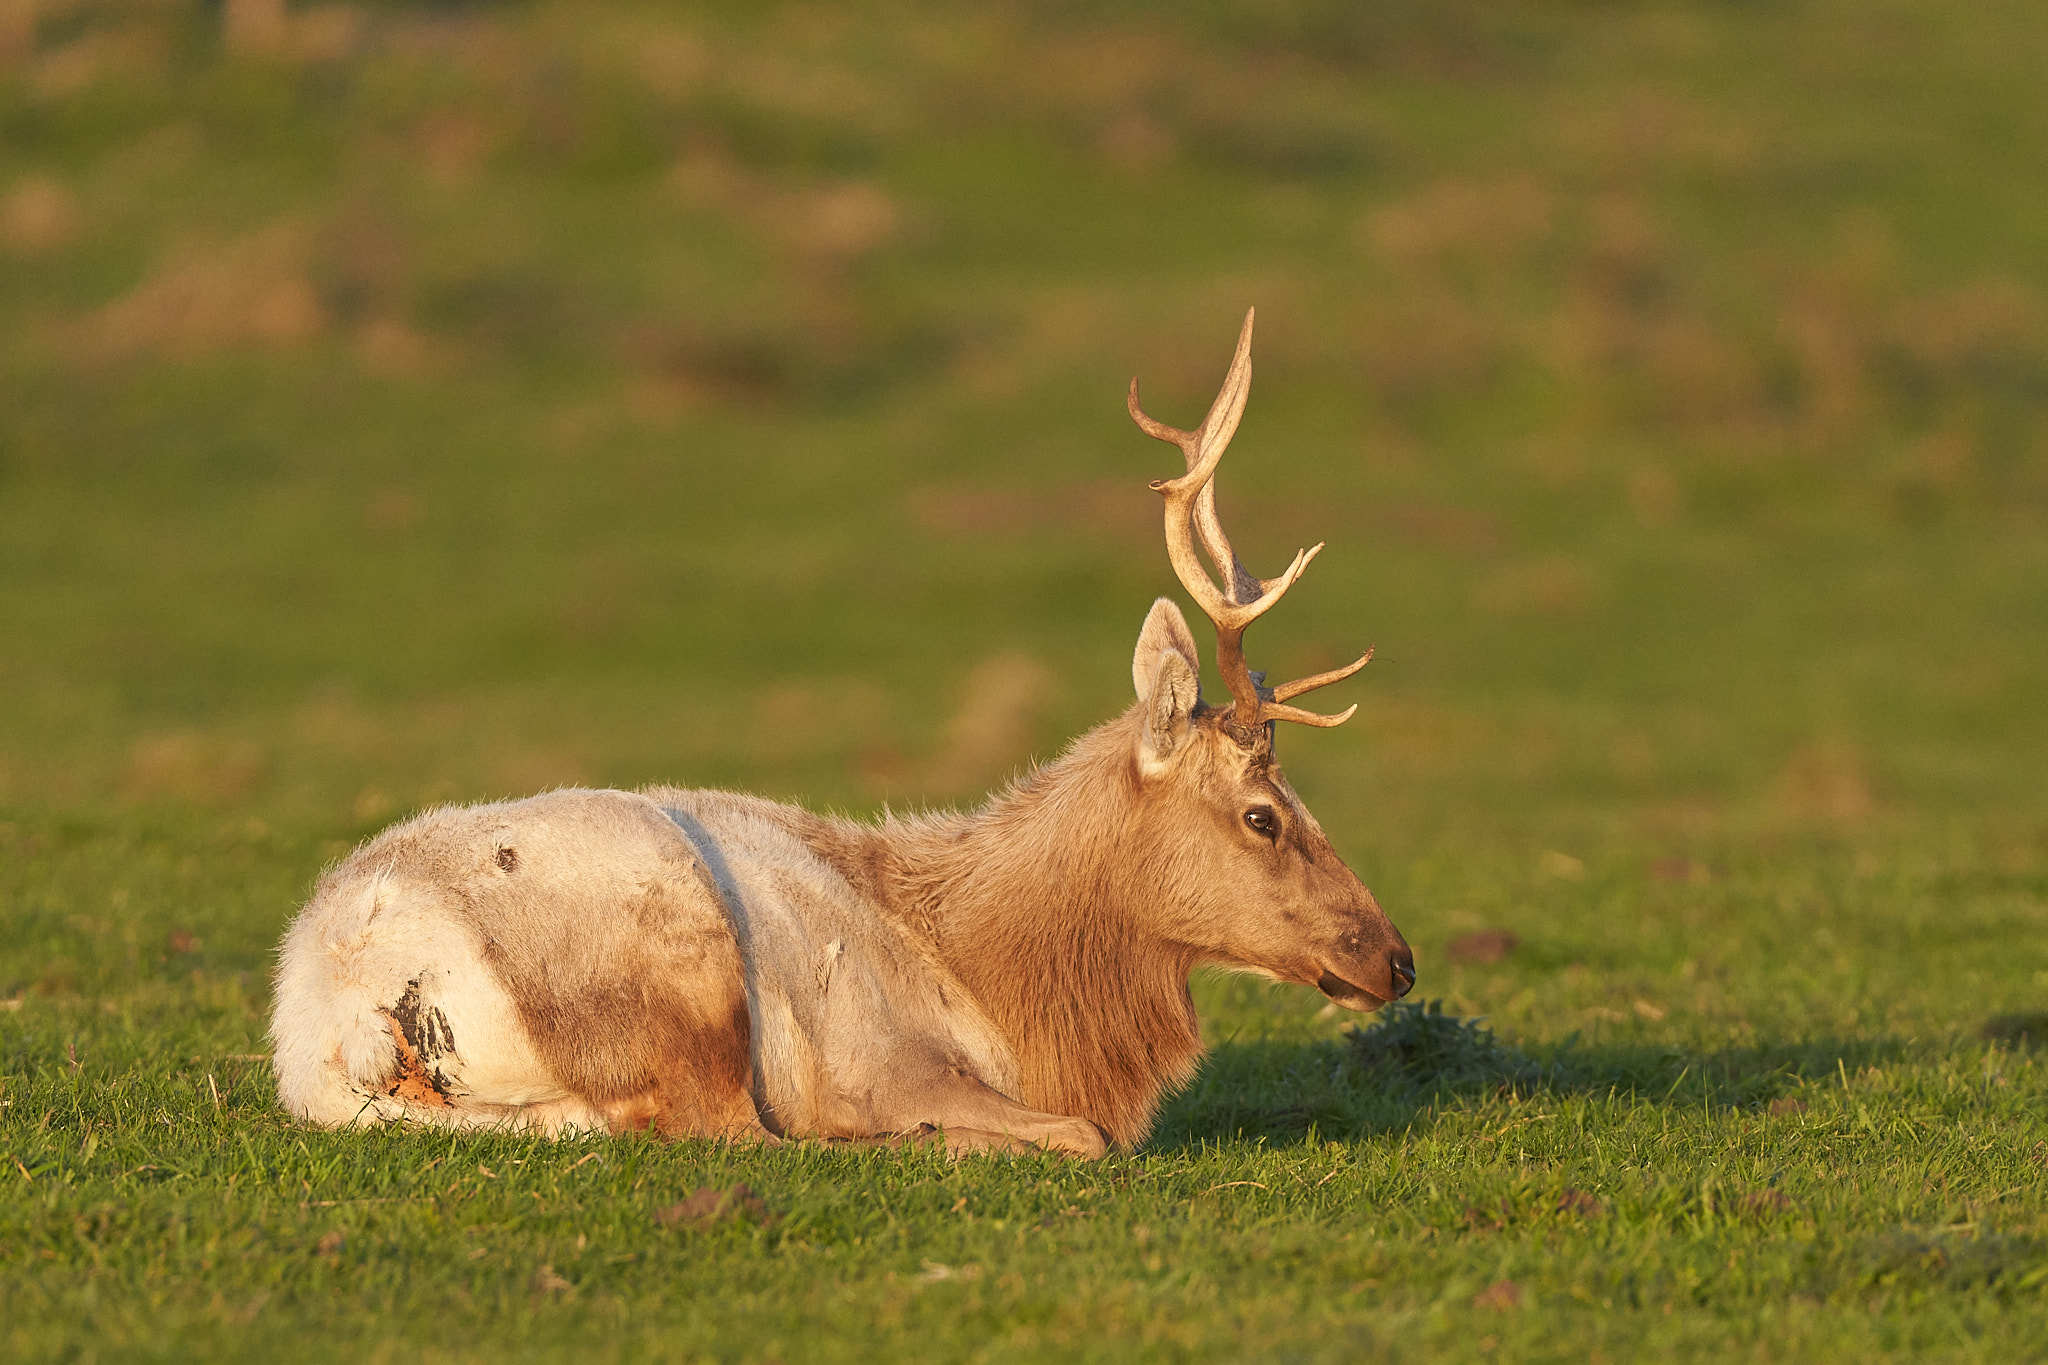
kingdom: Animalia
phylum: Chordata
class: Mammalia
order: Artiodactyla
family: Cervidae
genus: Cervus
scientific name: Cervus elaphus
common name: Red deer
